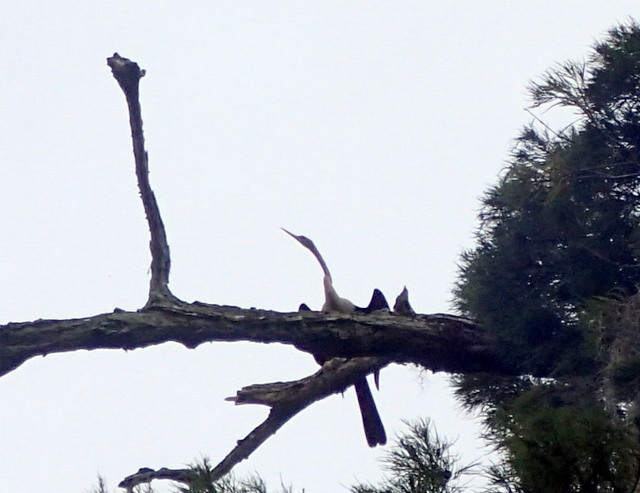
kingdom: Animalia
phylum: Chordata
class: Aves
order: Suliformes
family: Anhingidae
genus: Anhinga
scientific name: Anhinga anhinga
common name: Anhinga
